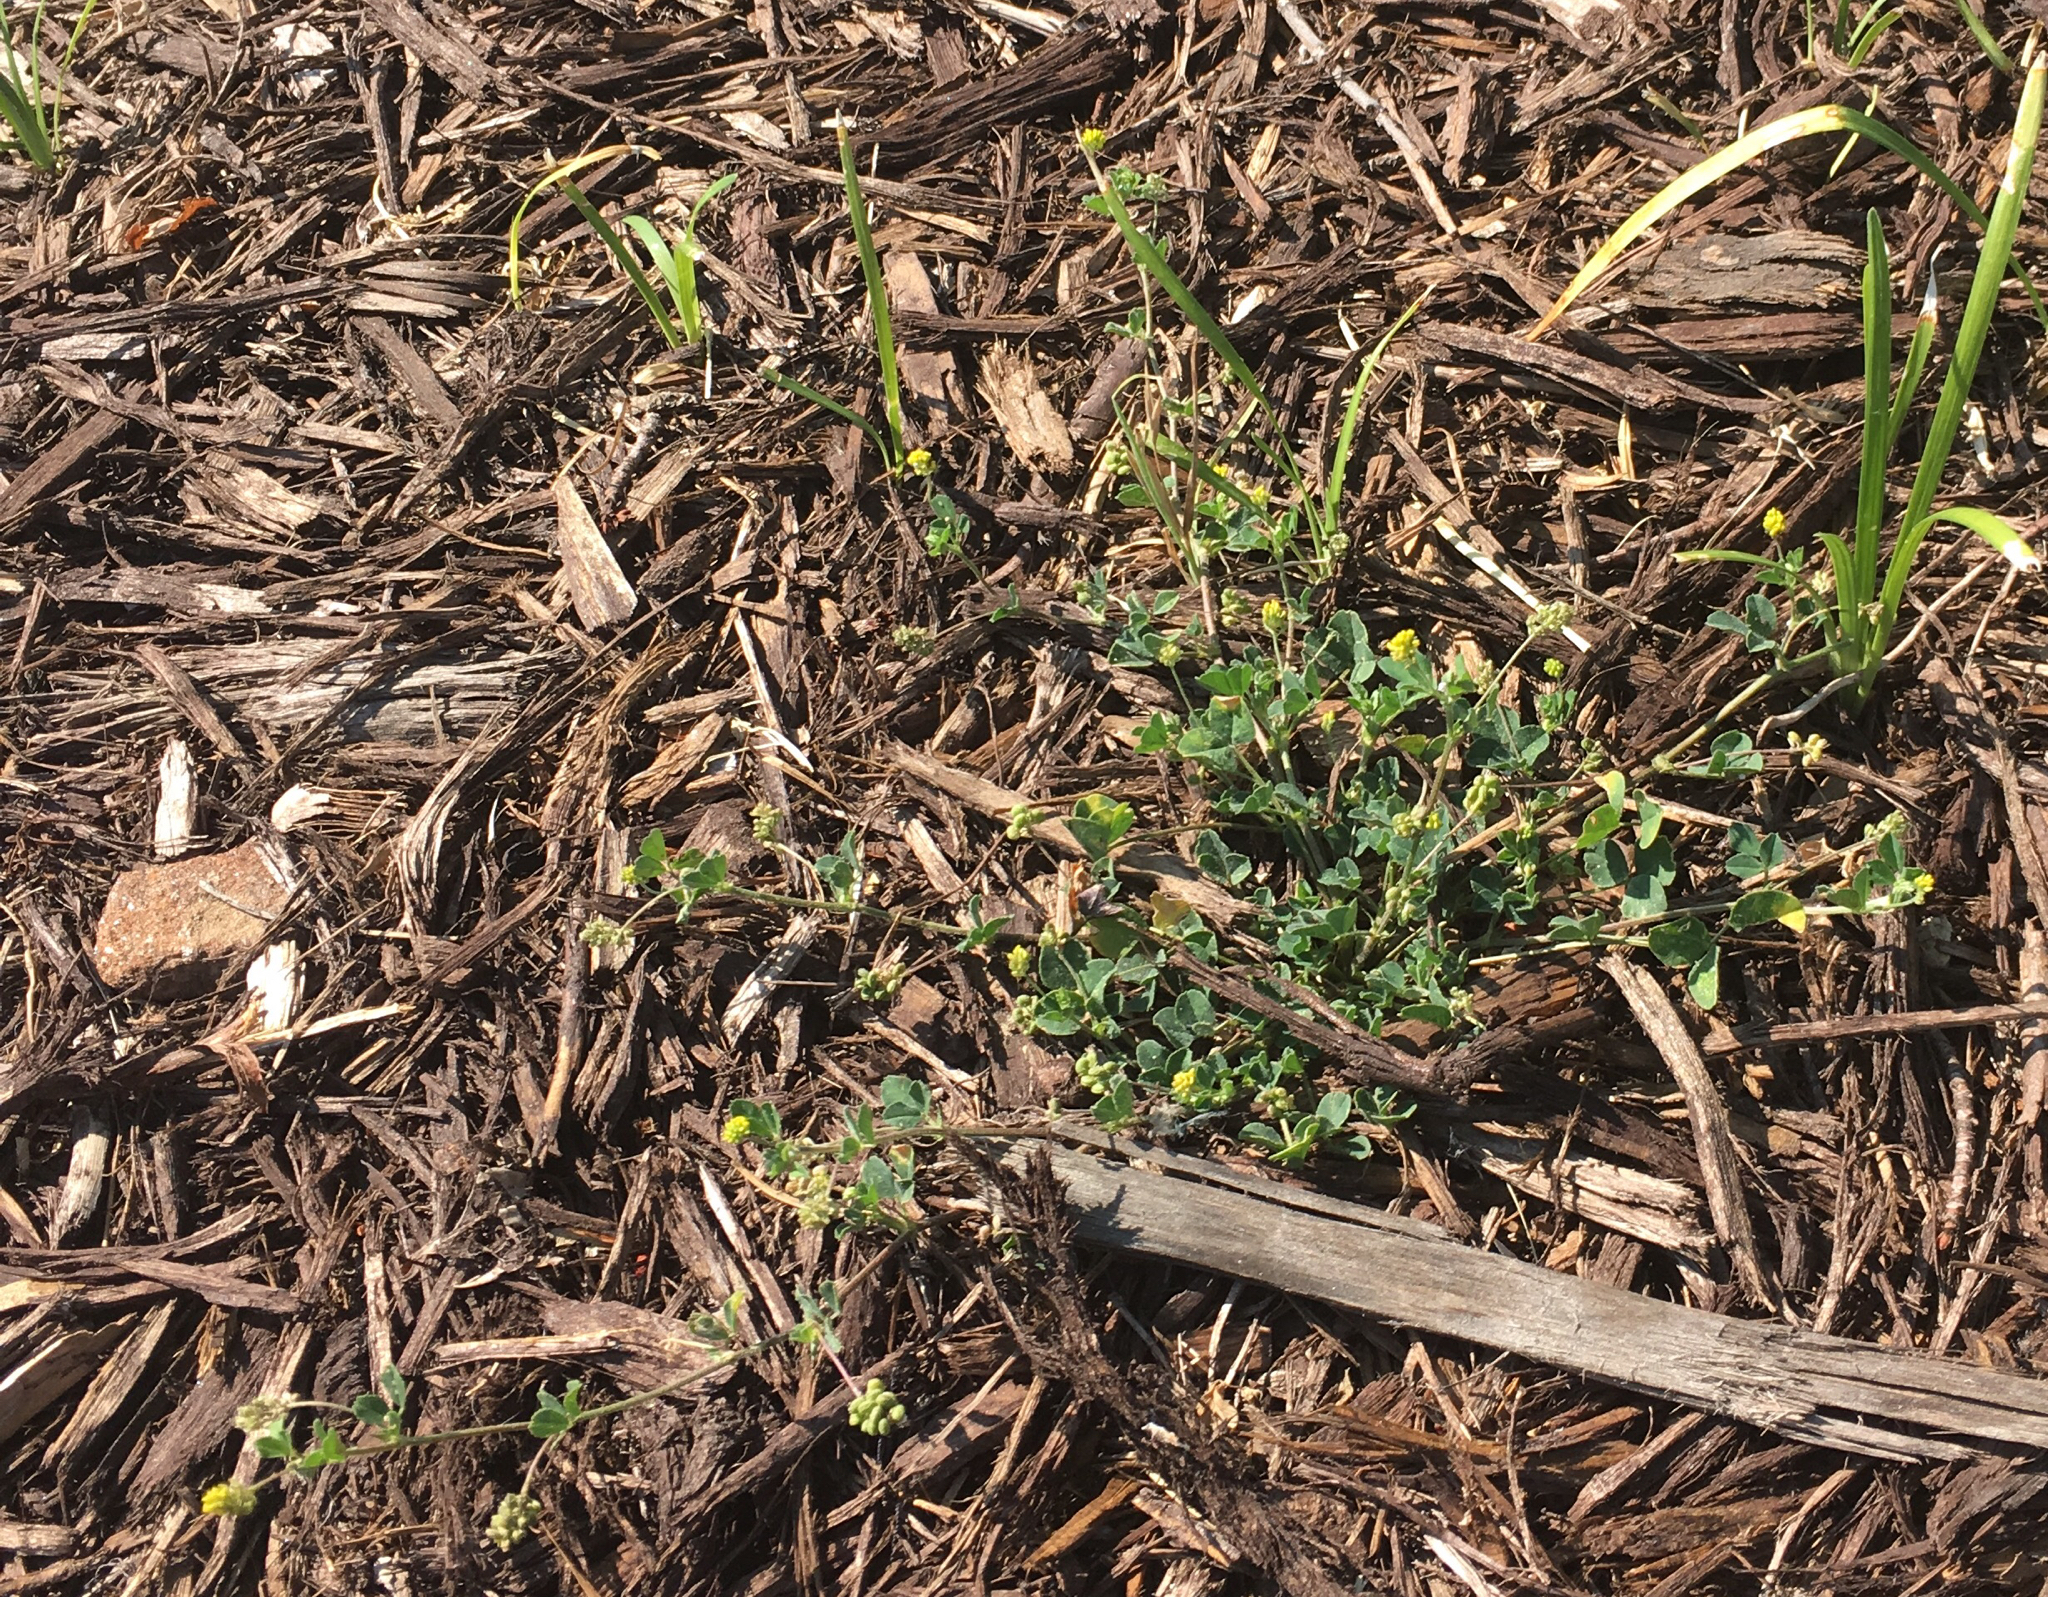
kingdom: Plantae
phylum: Tracheophyta
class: Magnoliopsida
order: Fabales
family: Fabaceae
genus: Medicago
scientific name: Medicago lupulina
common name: Black medick
